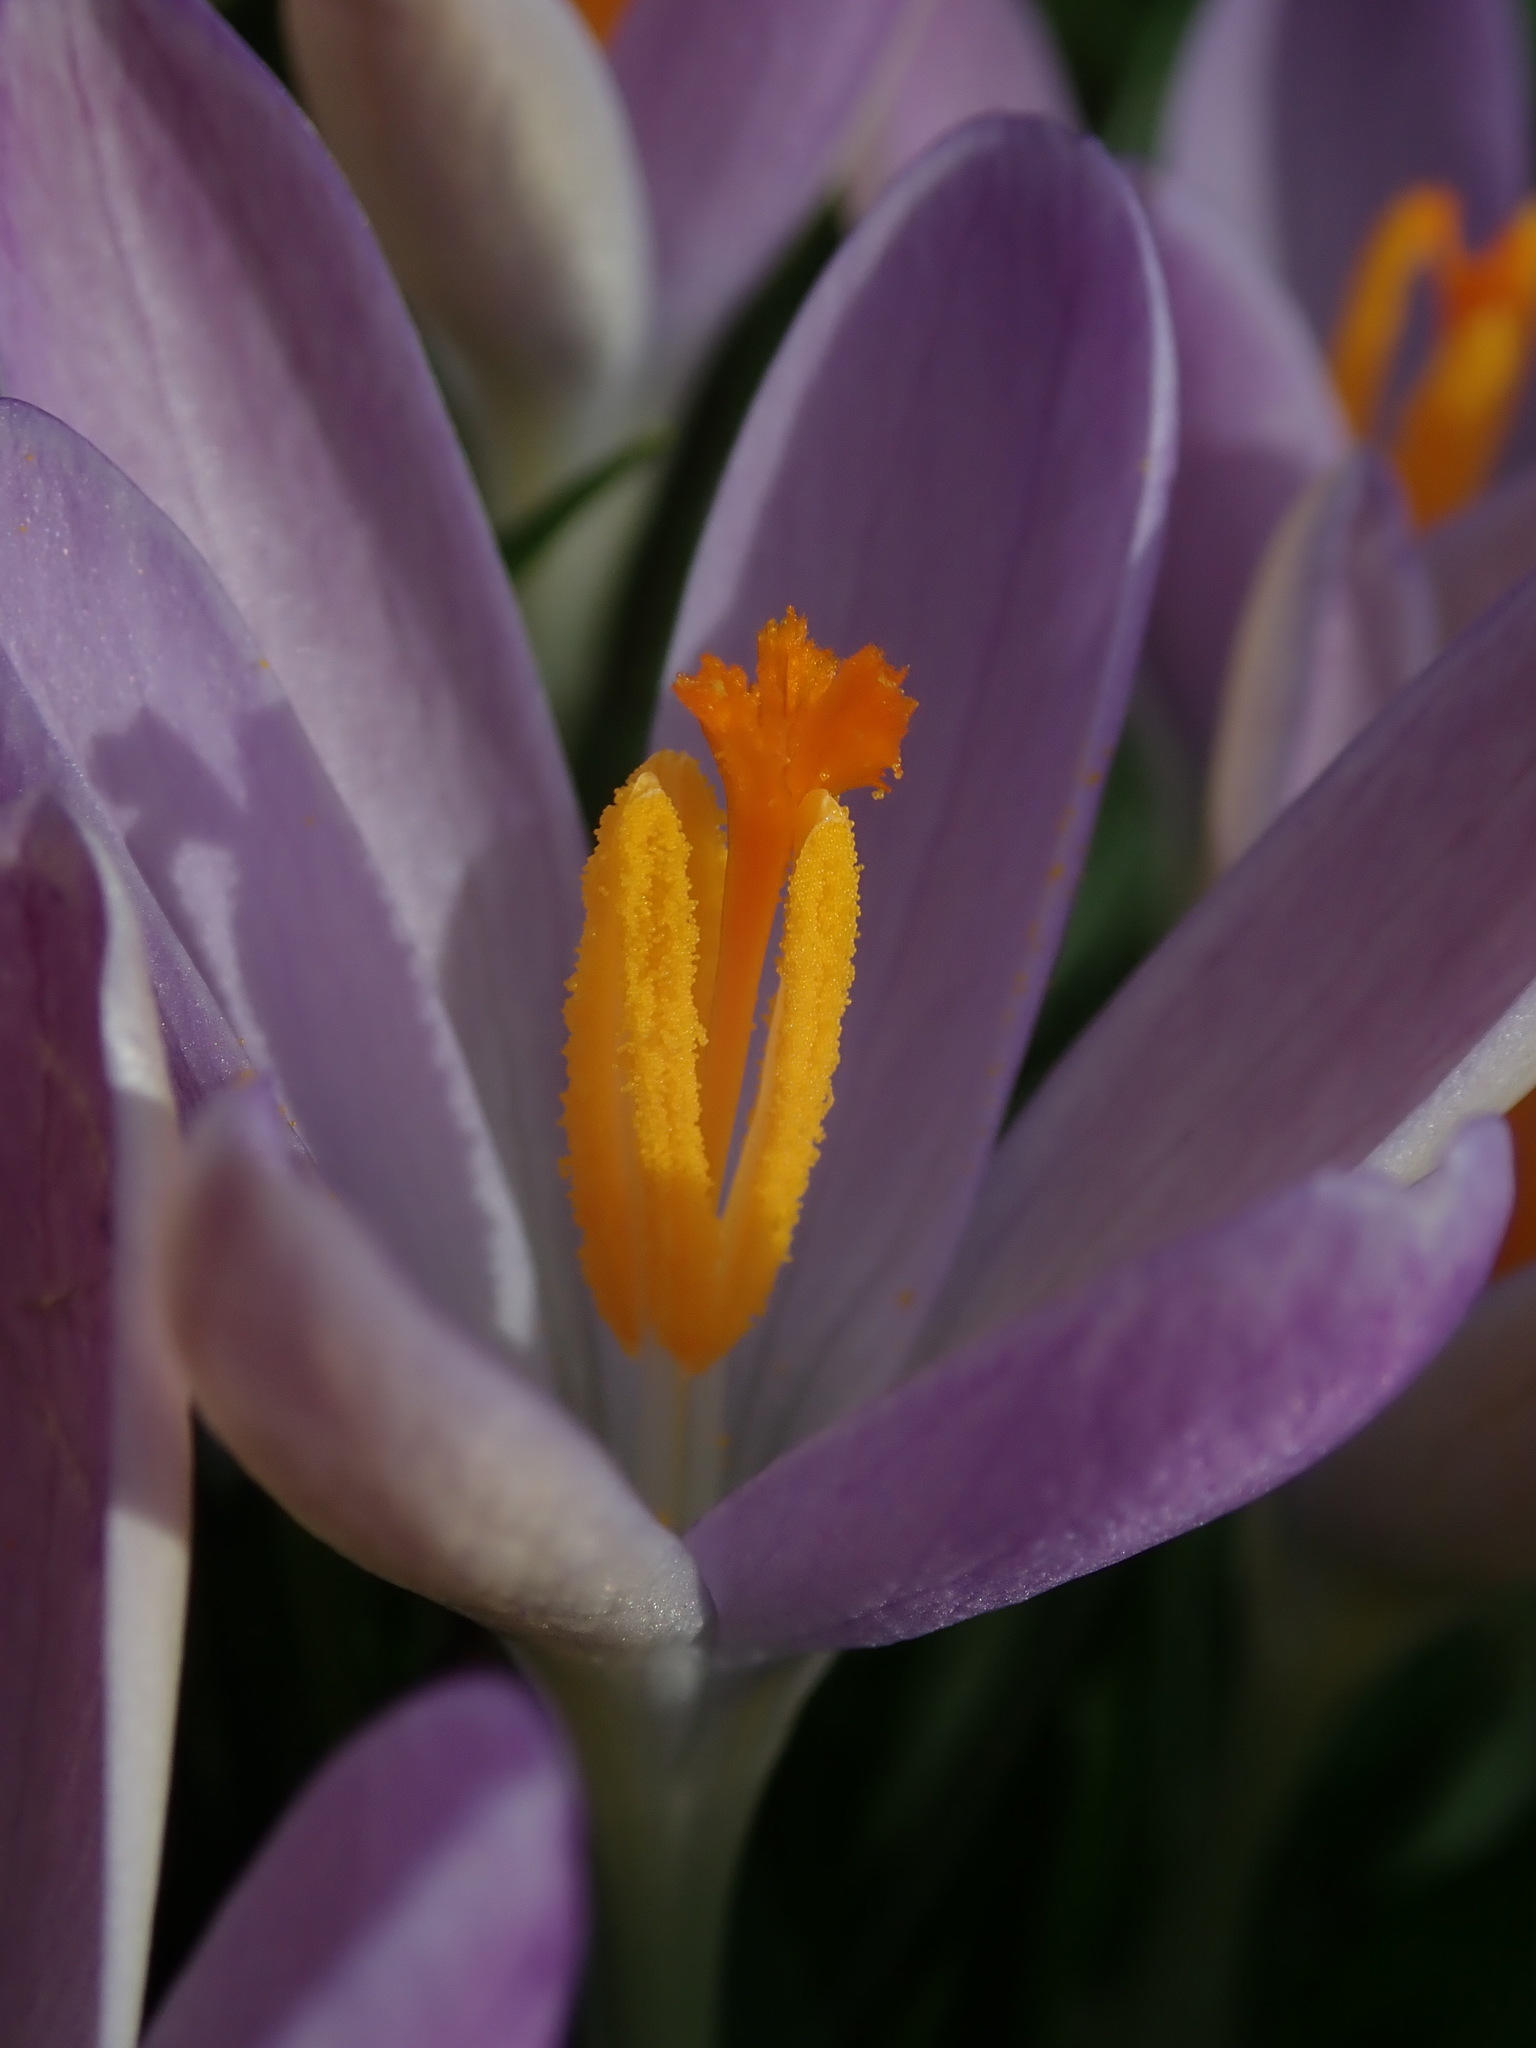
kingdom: Plantae
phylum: Tracheophyta
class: Liliopsida
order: Asparagales
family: Iridaceae
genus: Crocus
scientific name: Crocus tommasinianus
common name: Early crocus
